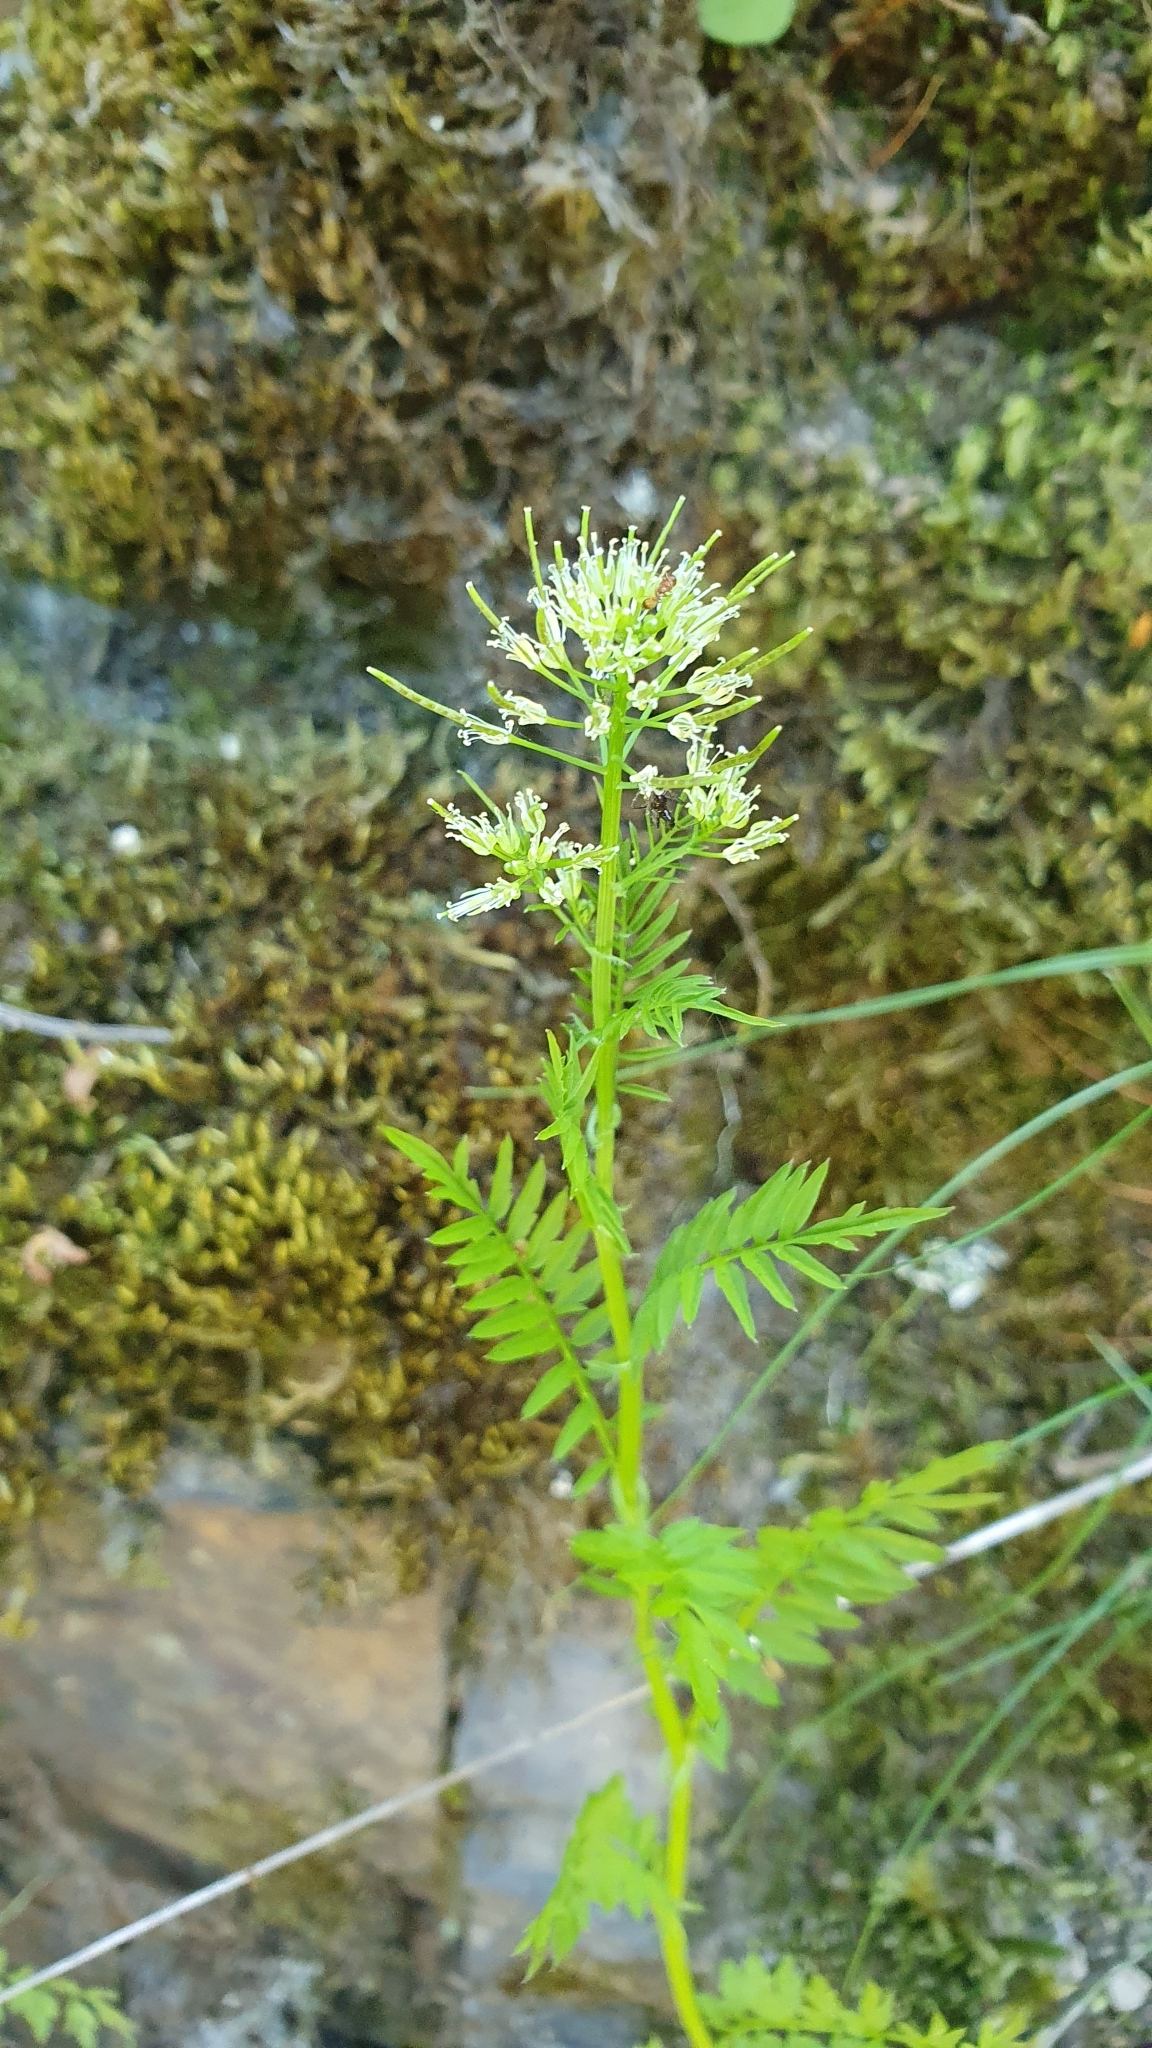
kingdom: Plantae
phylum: Tracheophyta
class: Magnoliopsida
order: Brassicales
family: Brassicaceae
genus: Cardamine
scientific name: Cardamine impatiens
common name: Narrow-leaved bitter-cress
